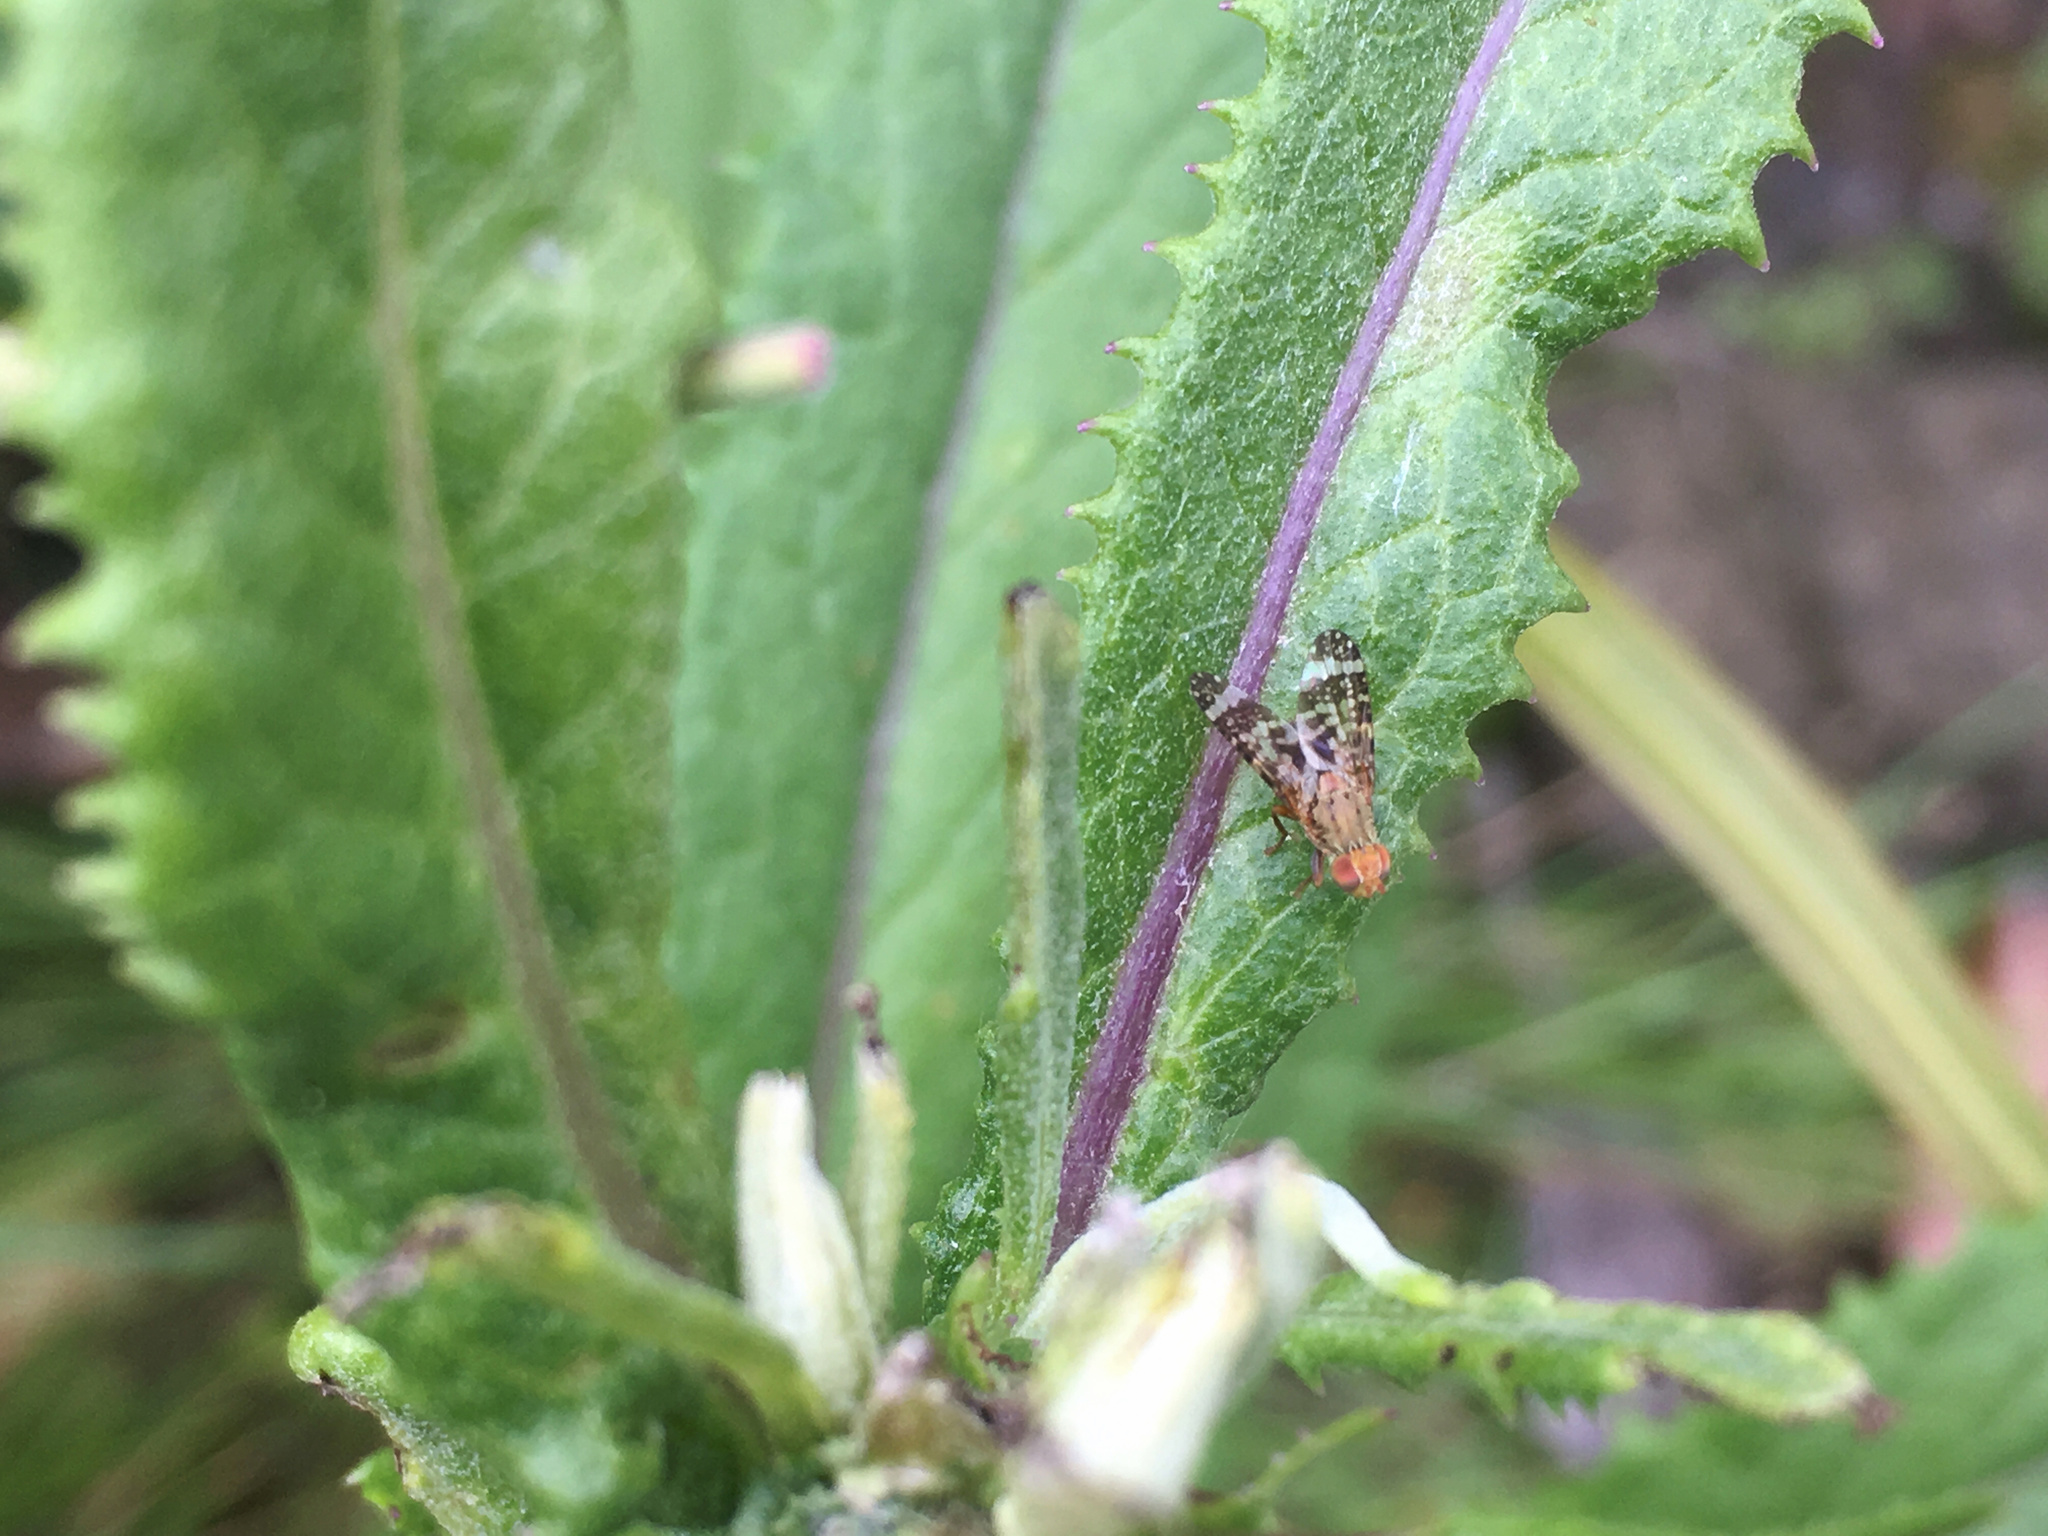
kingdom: Animalia
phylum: Arthropoda
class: Insecta
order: Diptera
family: Tephritidae
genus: Sphenella
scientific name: Sphenella
